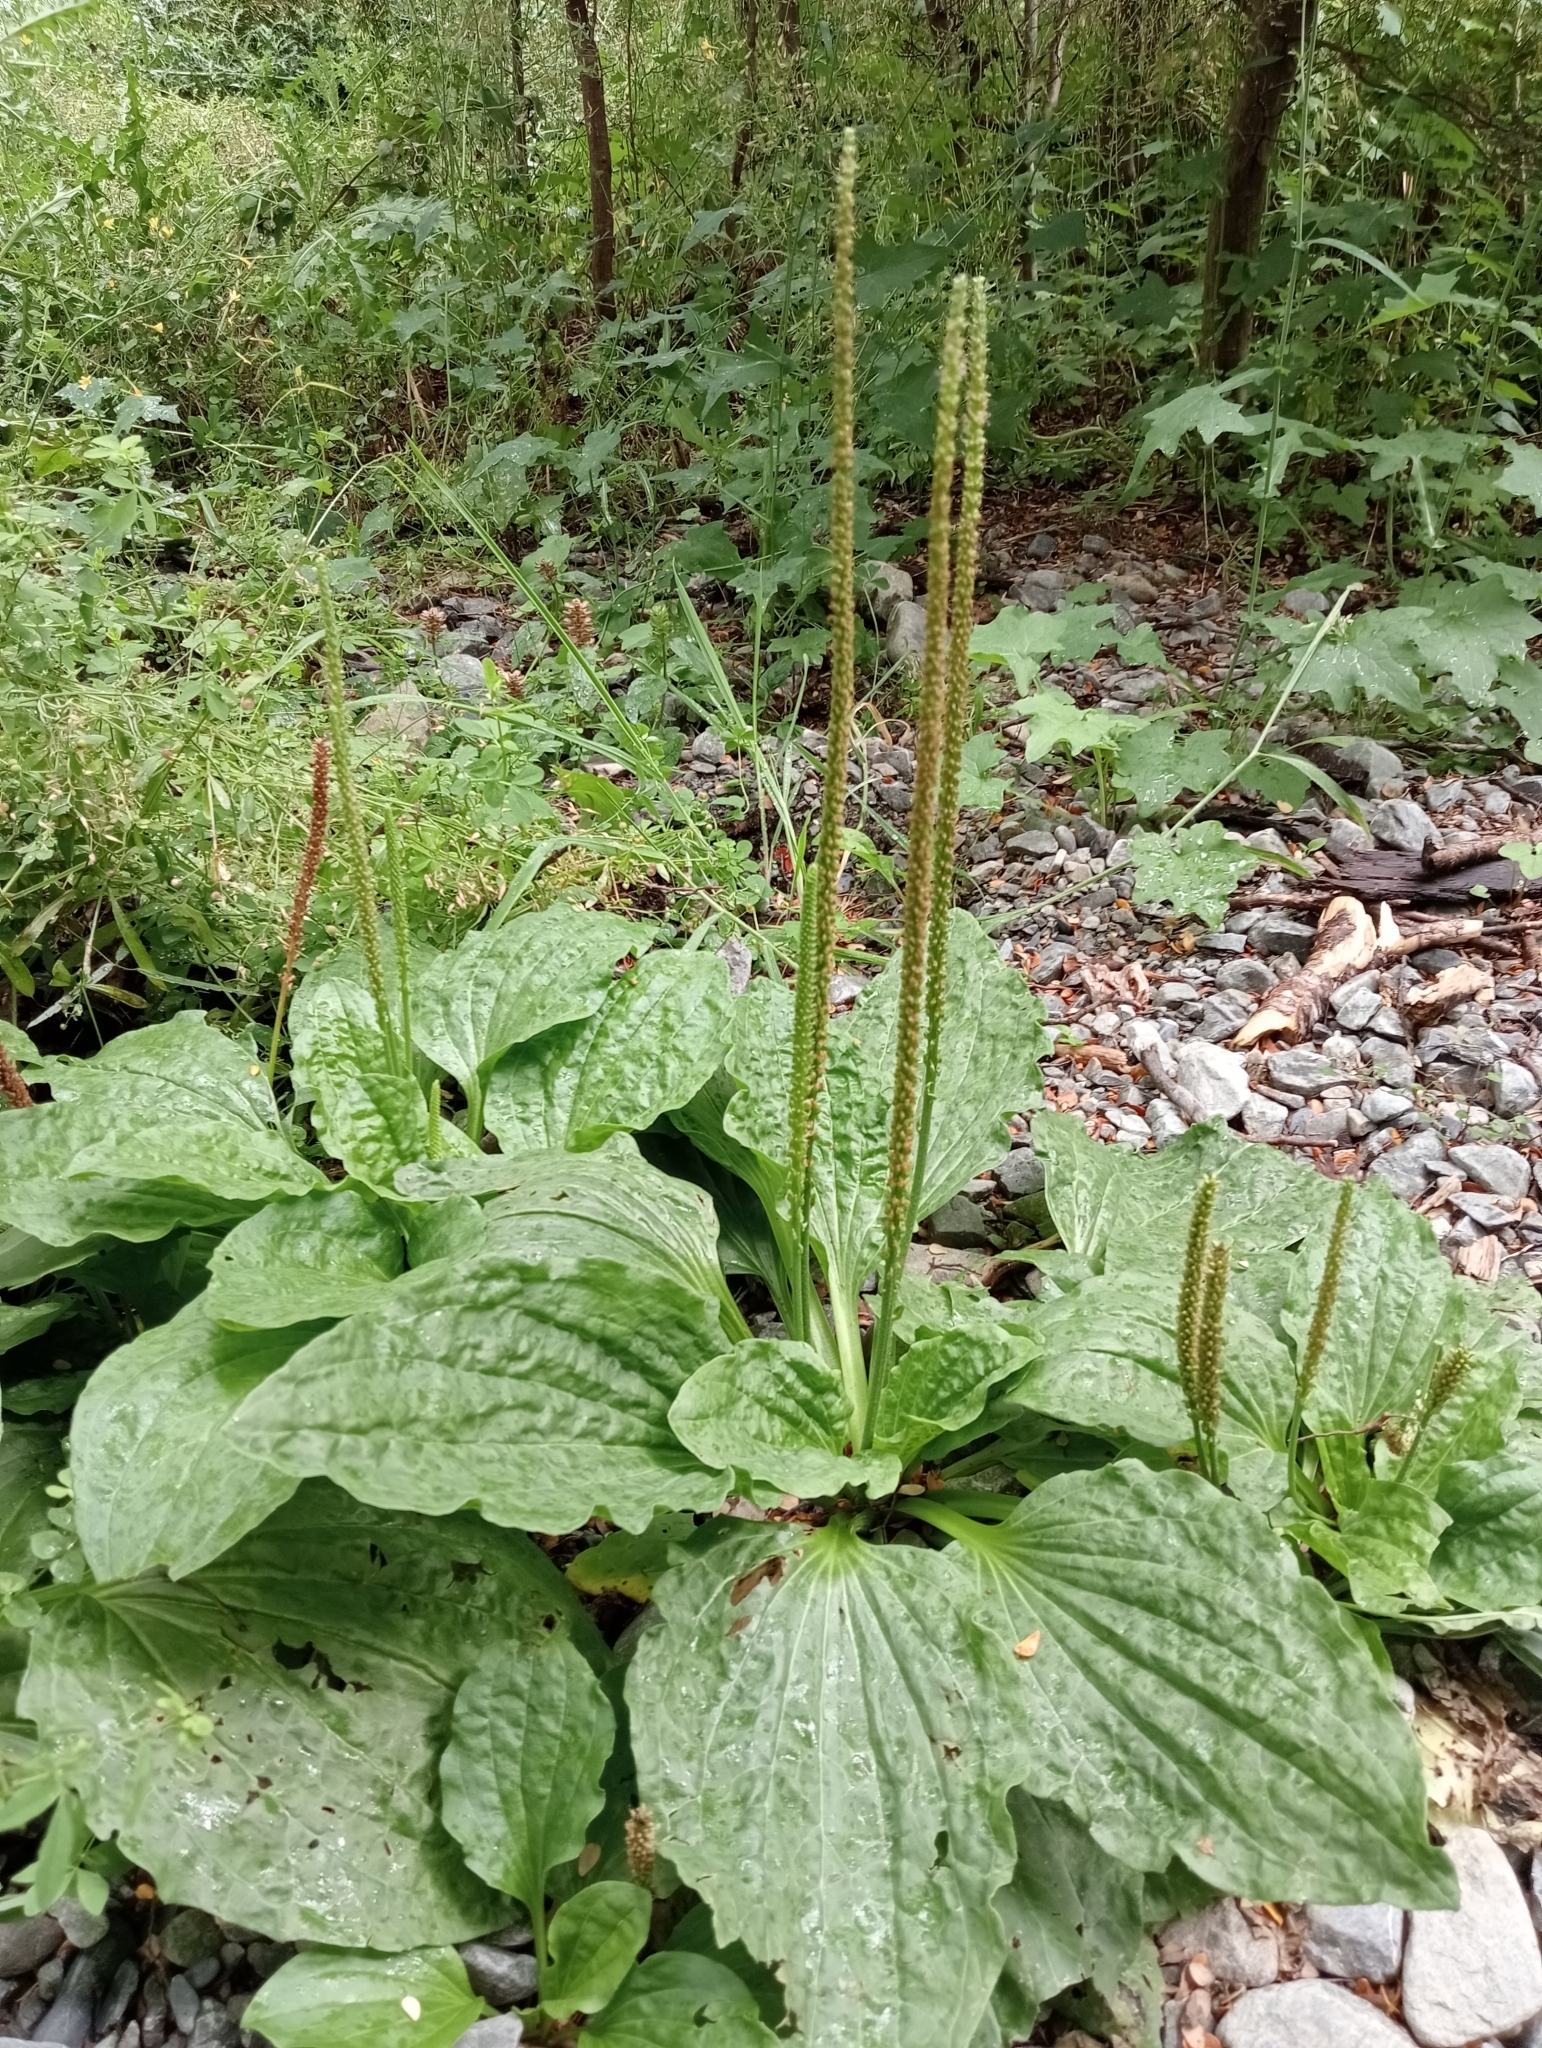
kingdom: Plantae
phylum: Tracheophyta
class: Magnoliopsida
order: Lamiales
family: Plantaginaceae
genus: Plantago
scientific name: Plantago major
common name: Common plantain
